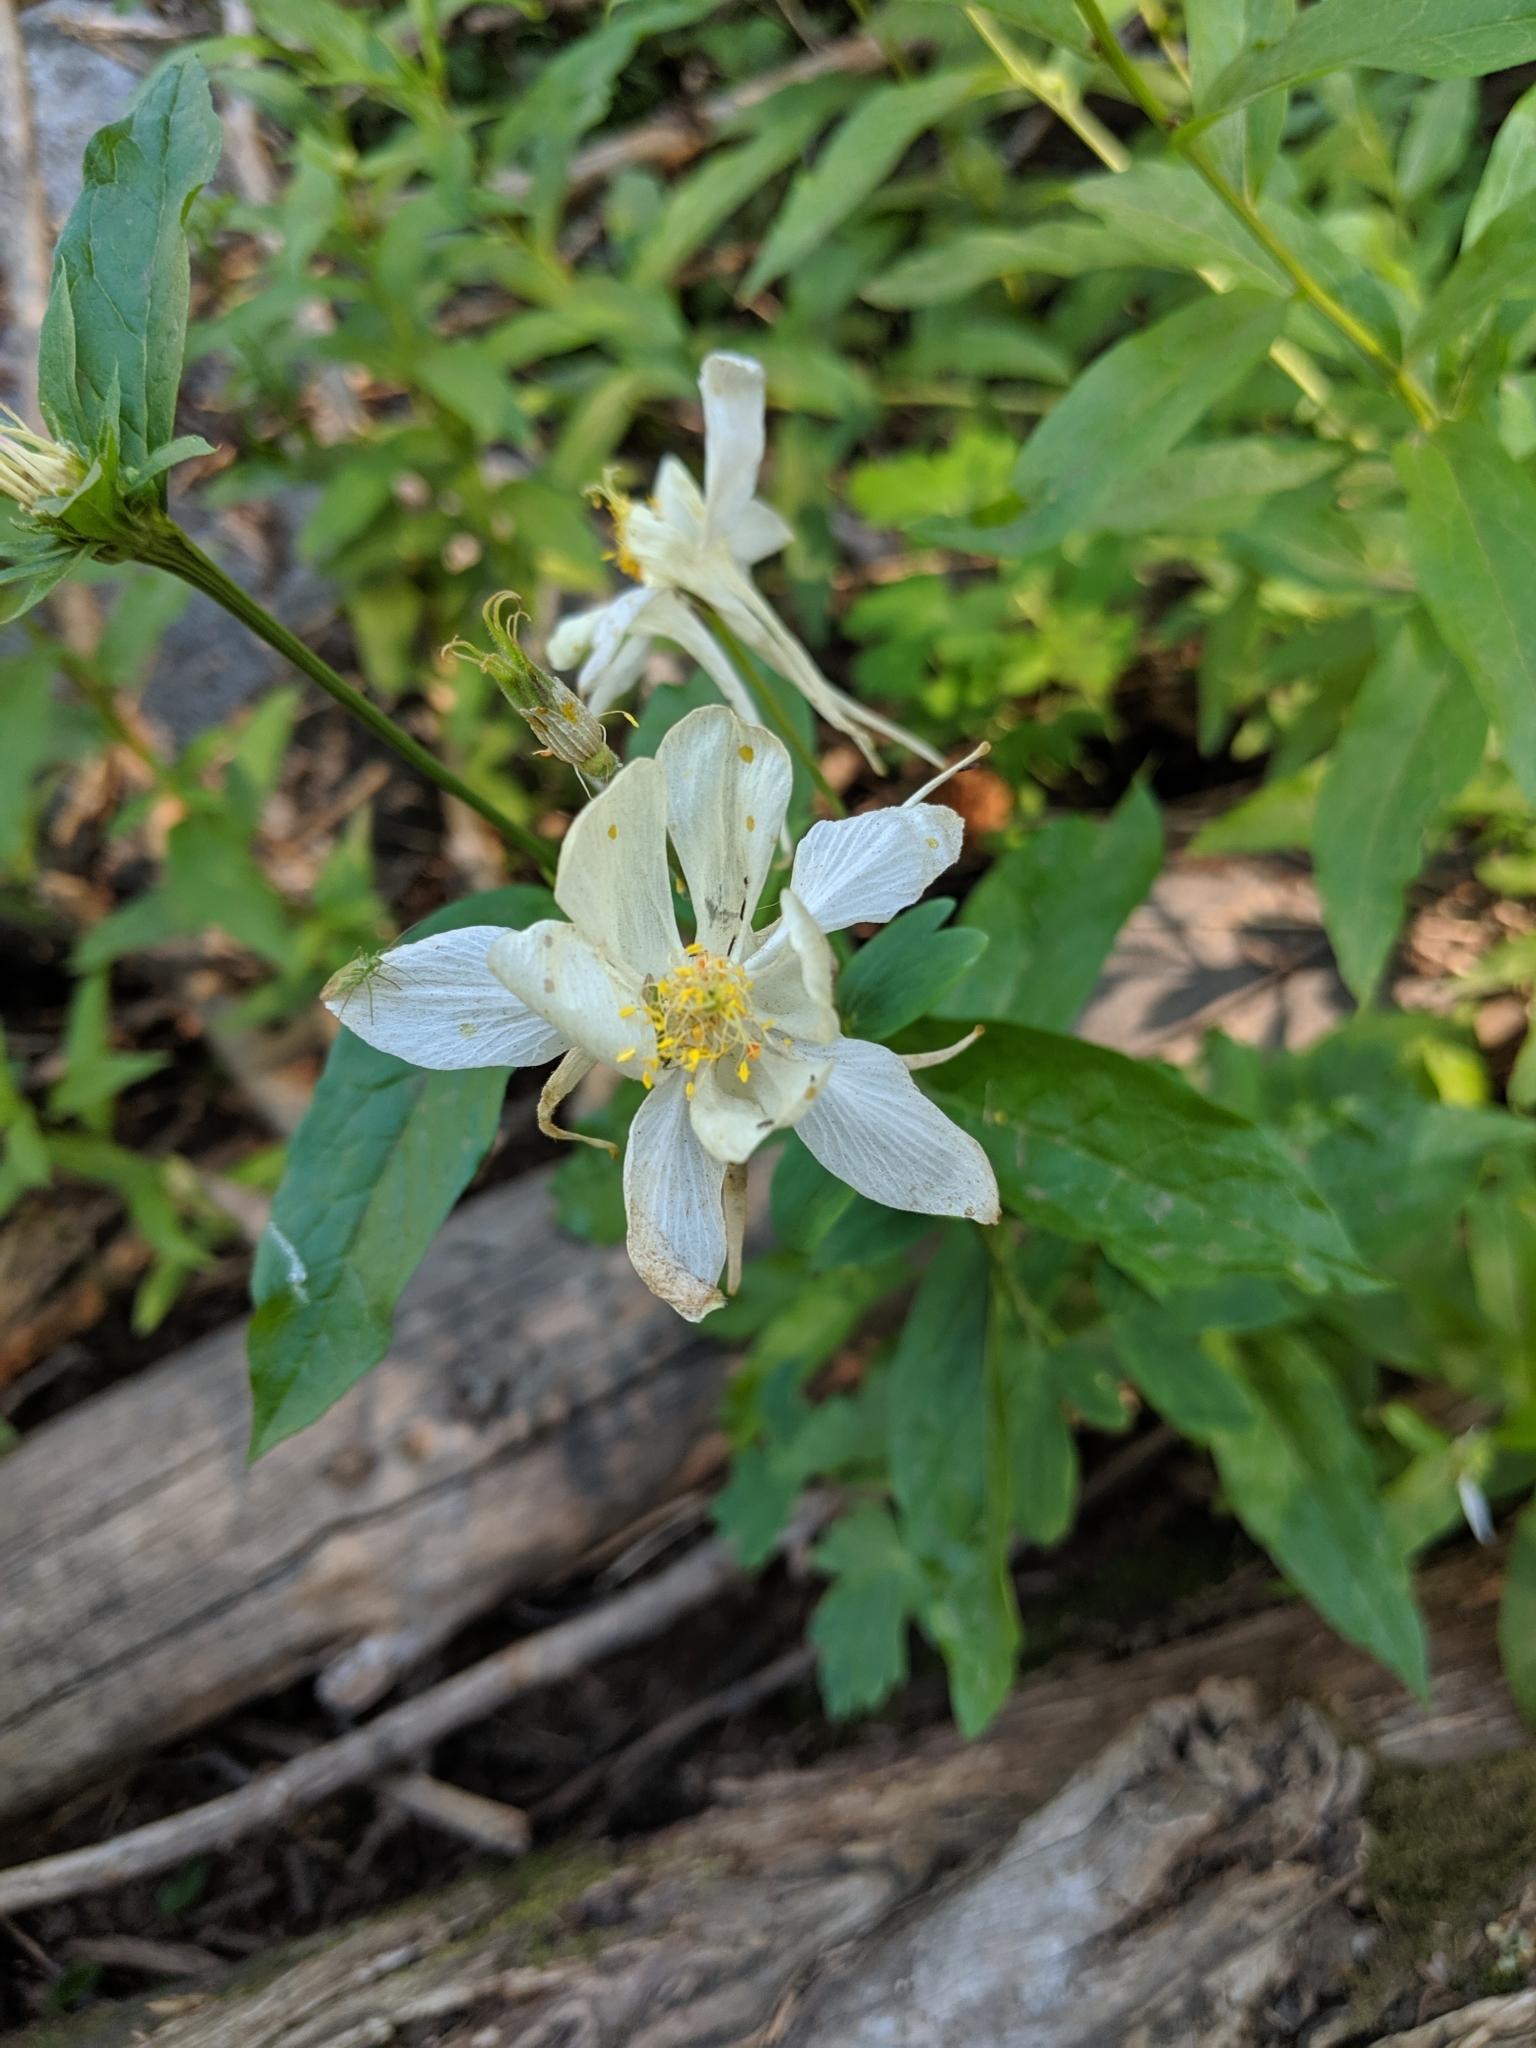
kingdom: Plantae
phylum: Tracheophyta
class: Magnoliopsida
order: Ranunculales
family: Ranunculaceae
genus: Aquilegia
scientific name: Aquilegia coerulea
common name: Rocky mountain columbine
